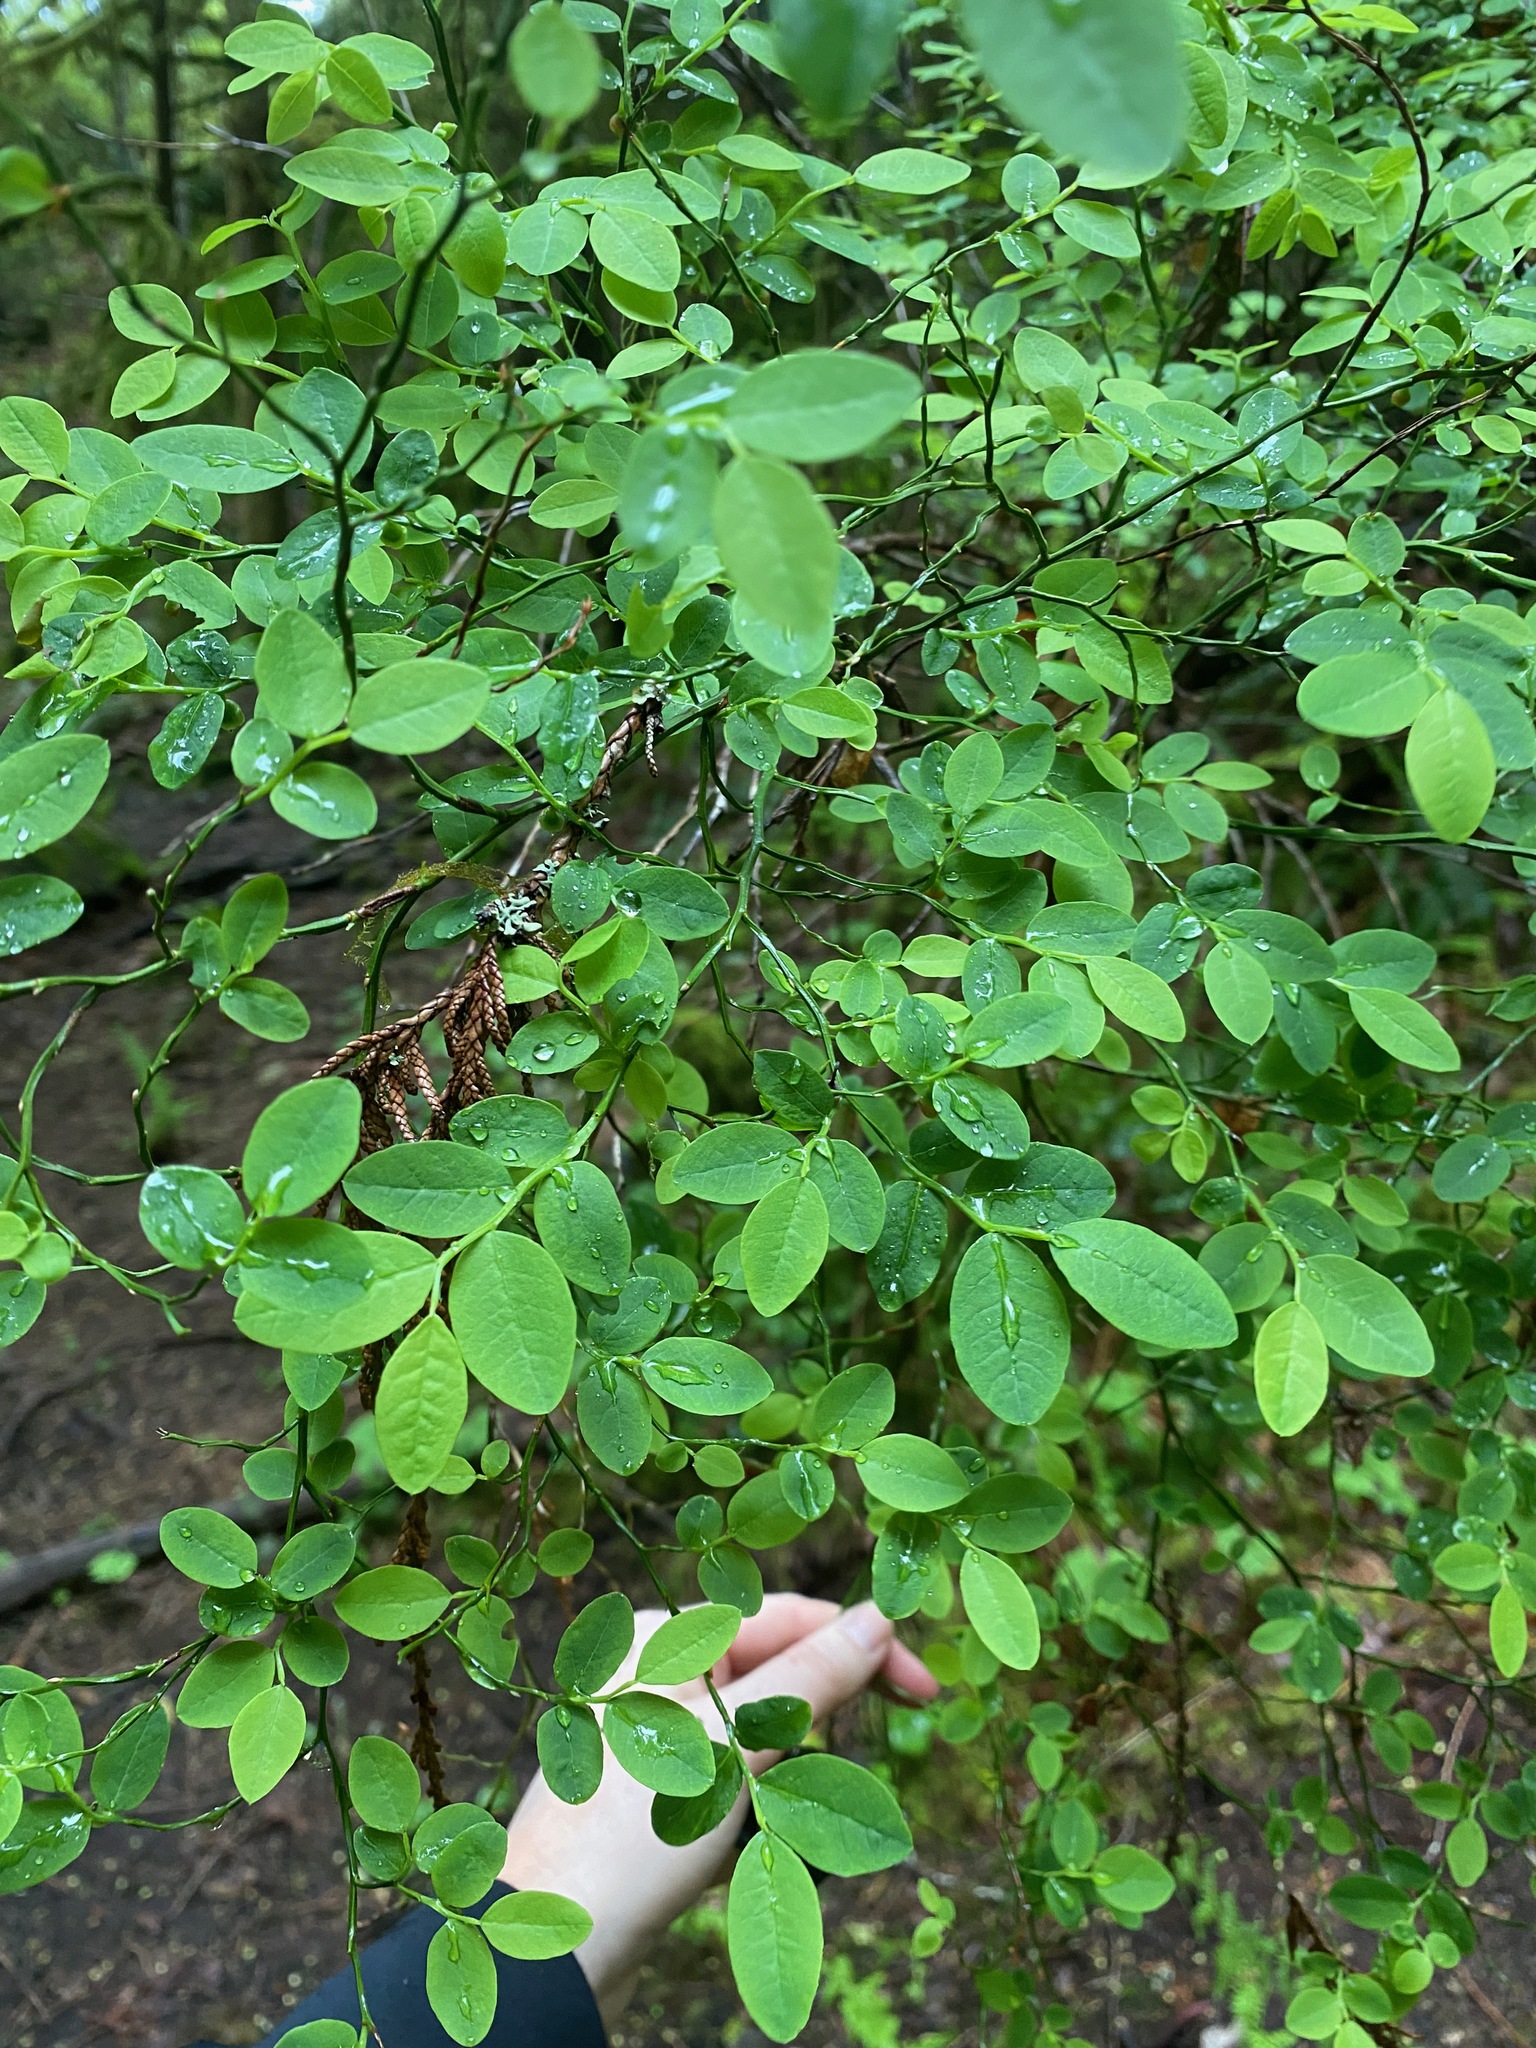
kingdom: Plantae
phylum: Tracheophyta
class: Magnoliopsida
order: Ericales
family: Ericaceae
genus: Vaccinium
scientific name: Vaccinium parvifolium
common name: Red-huckleberry
